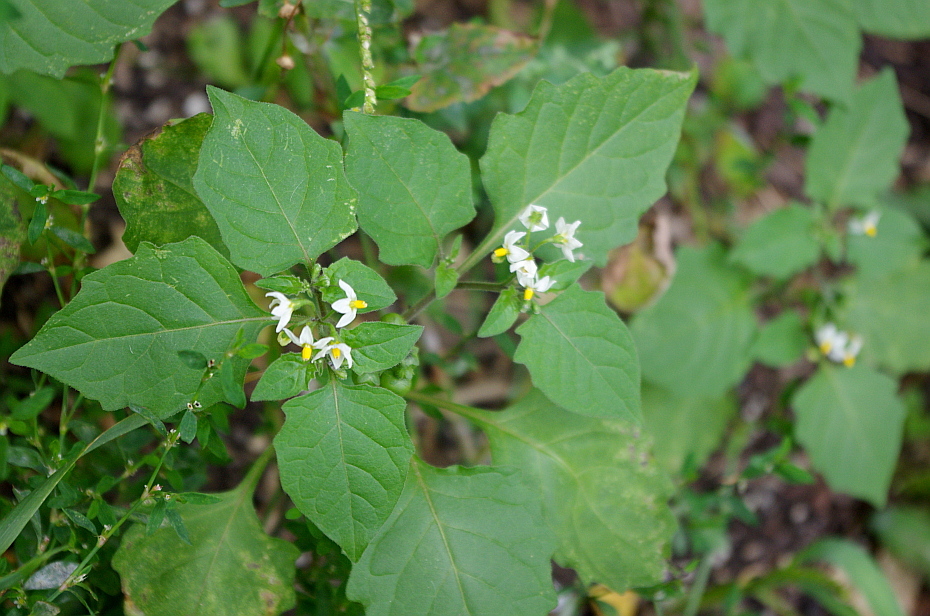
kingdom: Plantae
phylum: Tracheophyta
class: Magnoliopsida
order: Solanales
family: Solanaceae
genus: Solanum
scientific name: Solanum nigrum
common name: Black nightshade
